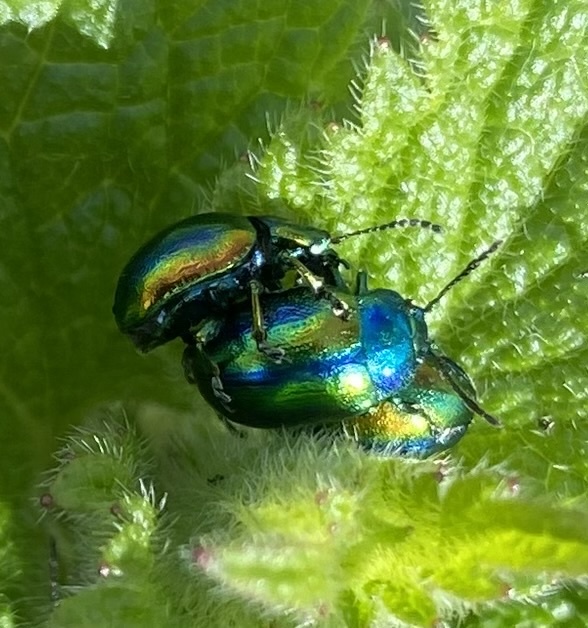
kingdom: Animalia
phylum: Arthropoda
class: Insecta
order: Coleoptera
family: Chrysomelidae
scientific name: Chrysomelidae
